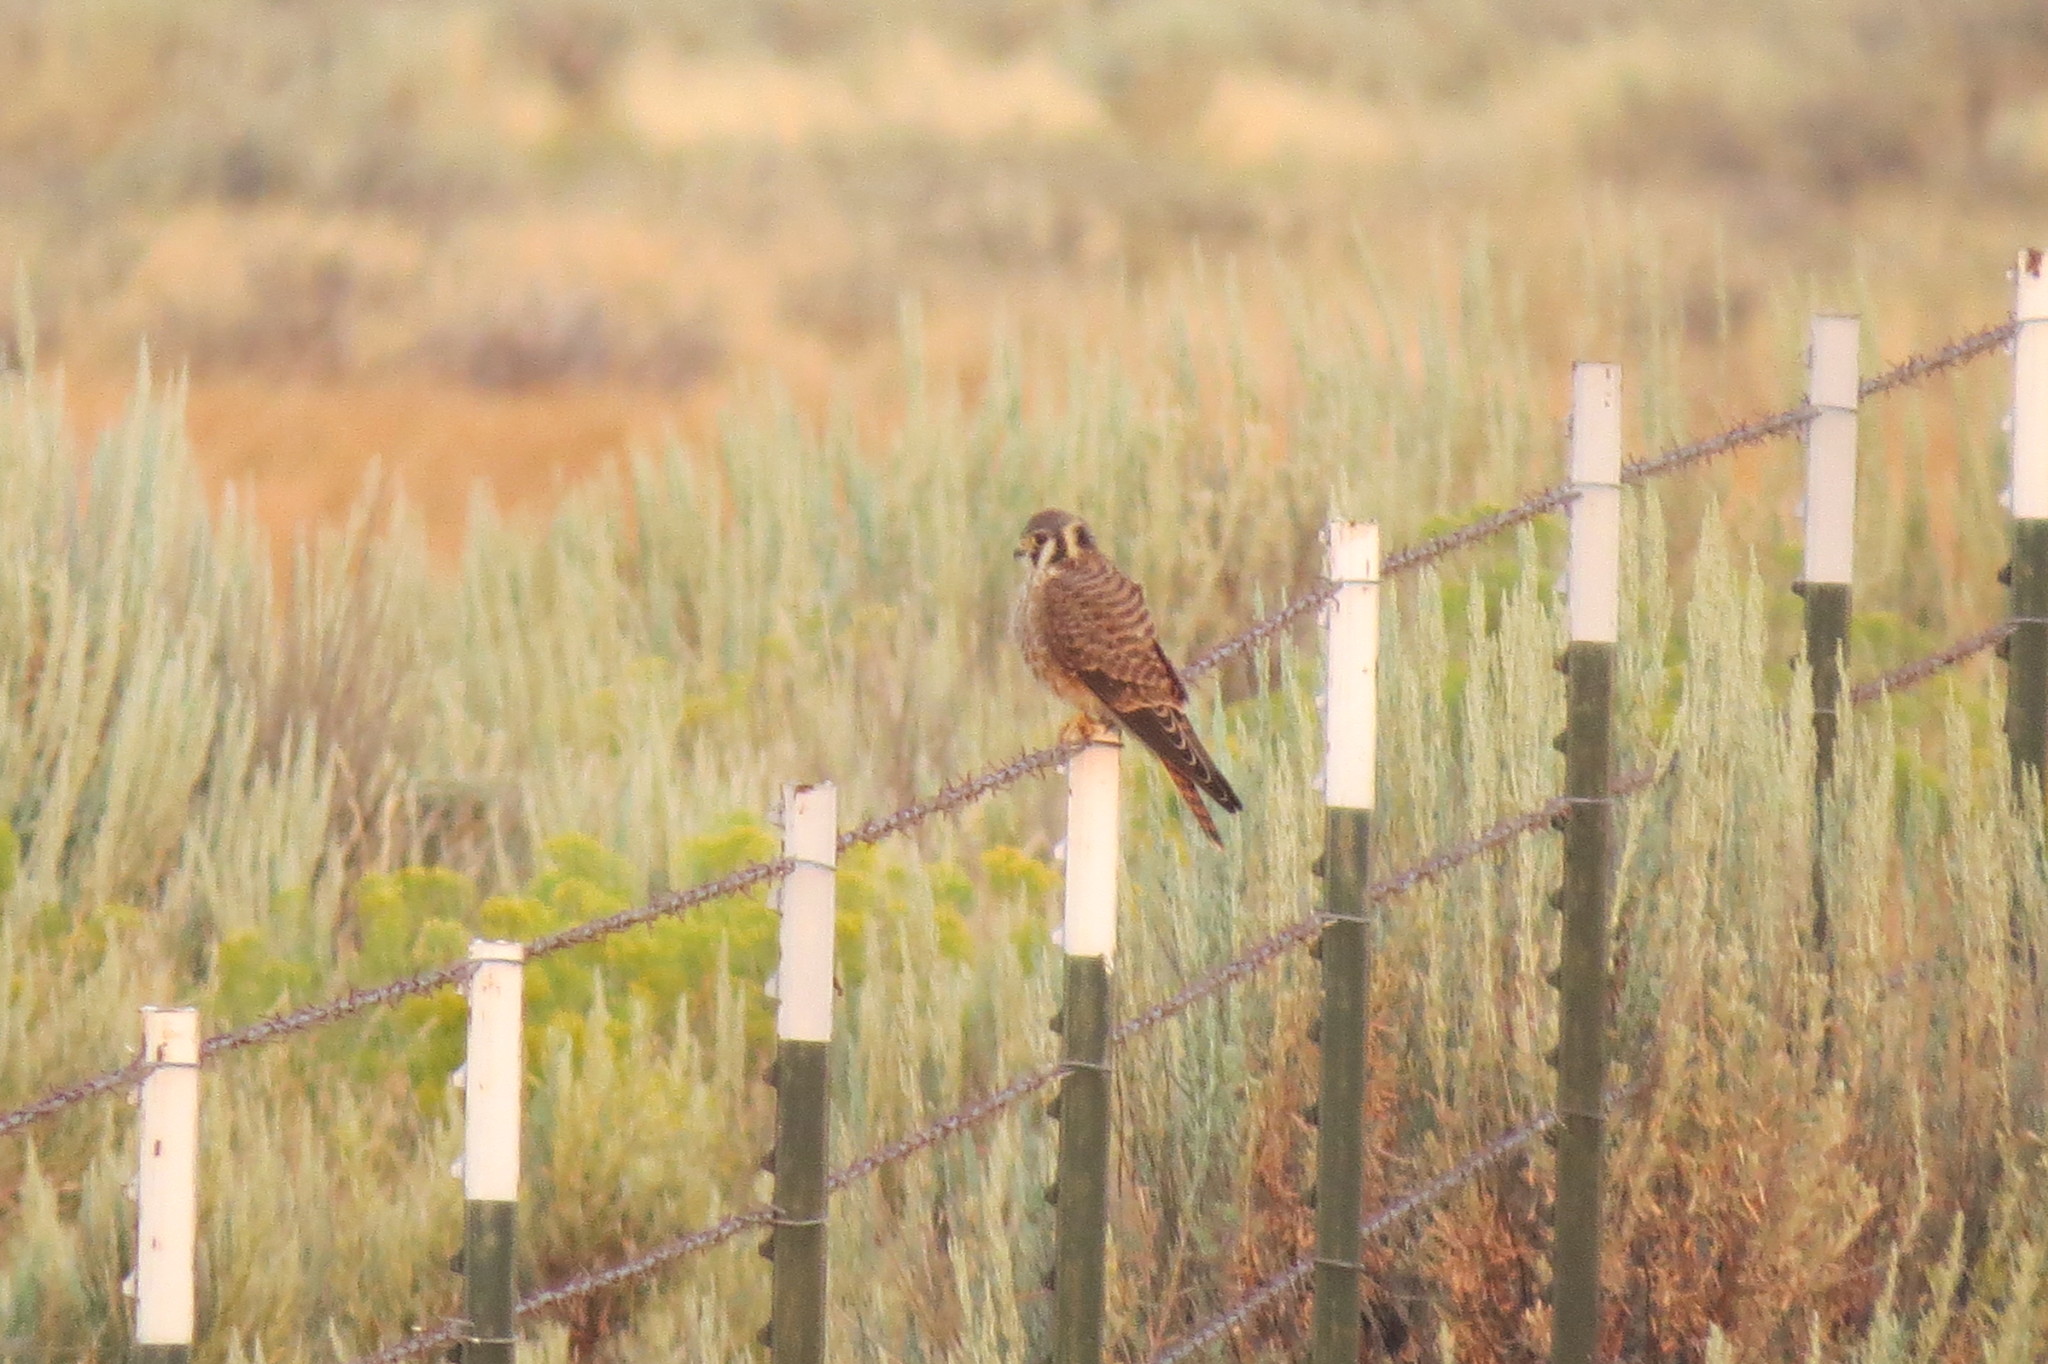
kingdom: Animalia
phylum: Chordata
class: Aves
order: Falconiformes
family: Falconidae
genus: Falco
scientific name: Falco sparverius
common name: American kestrel
